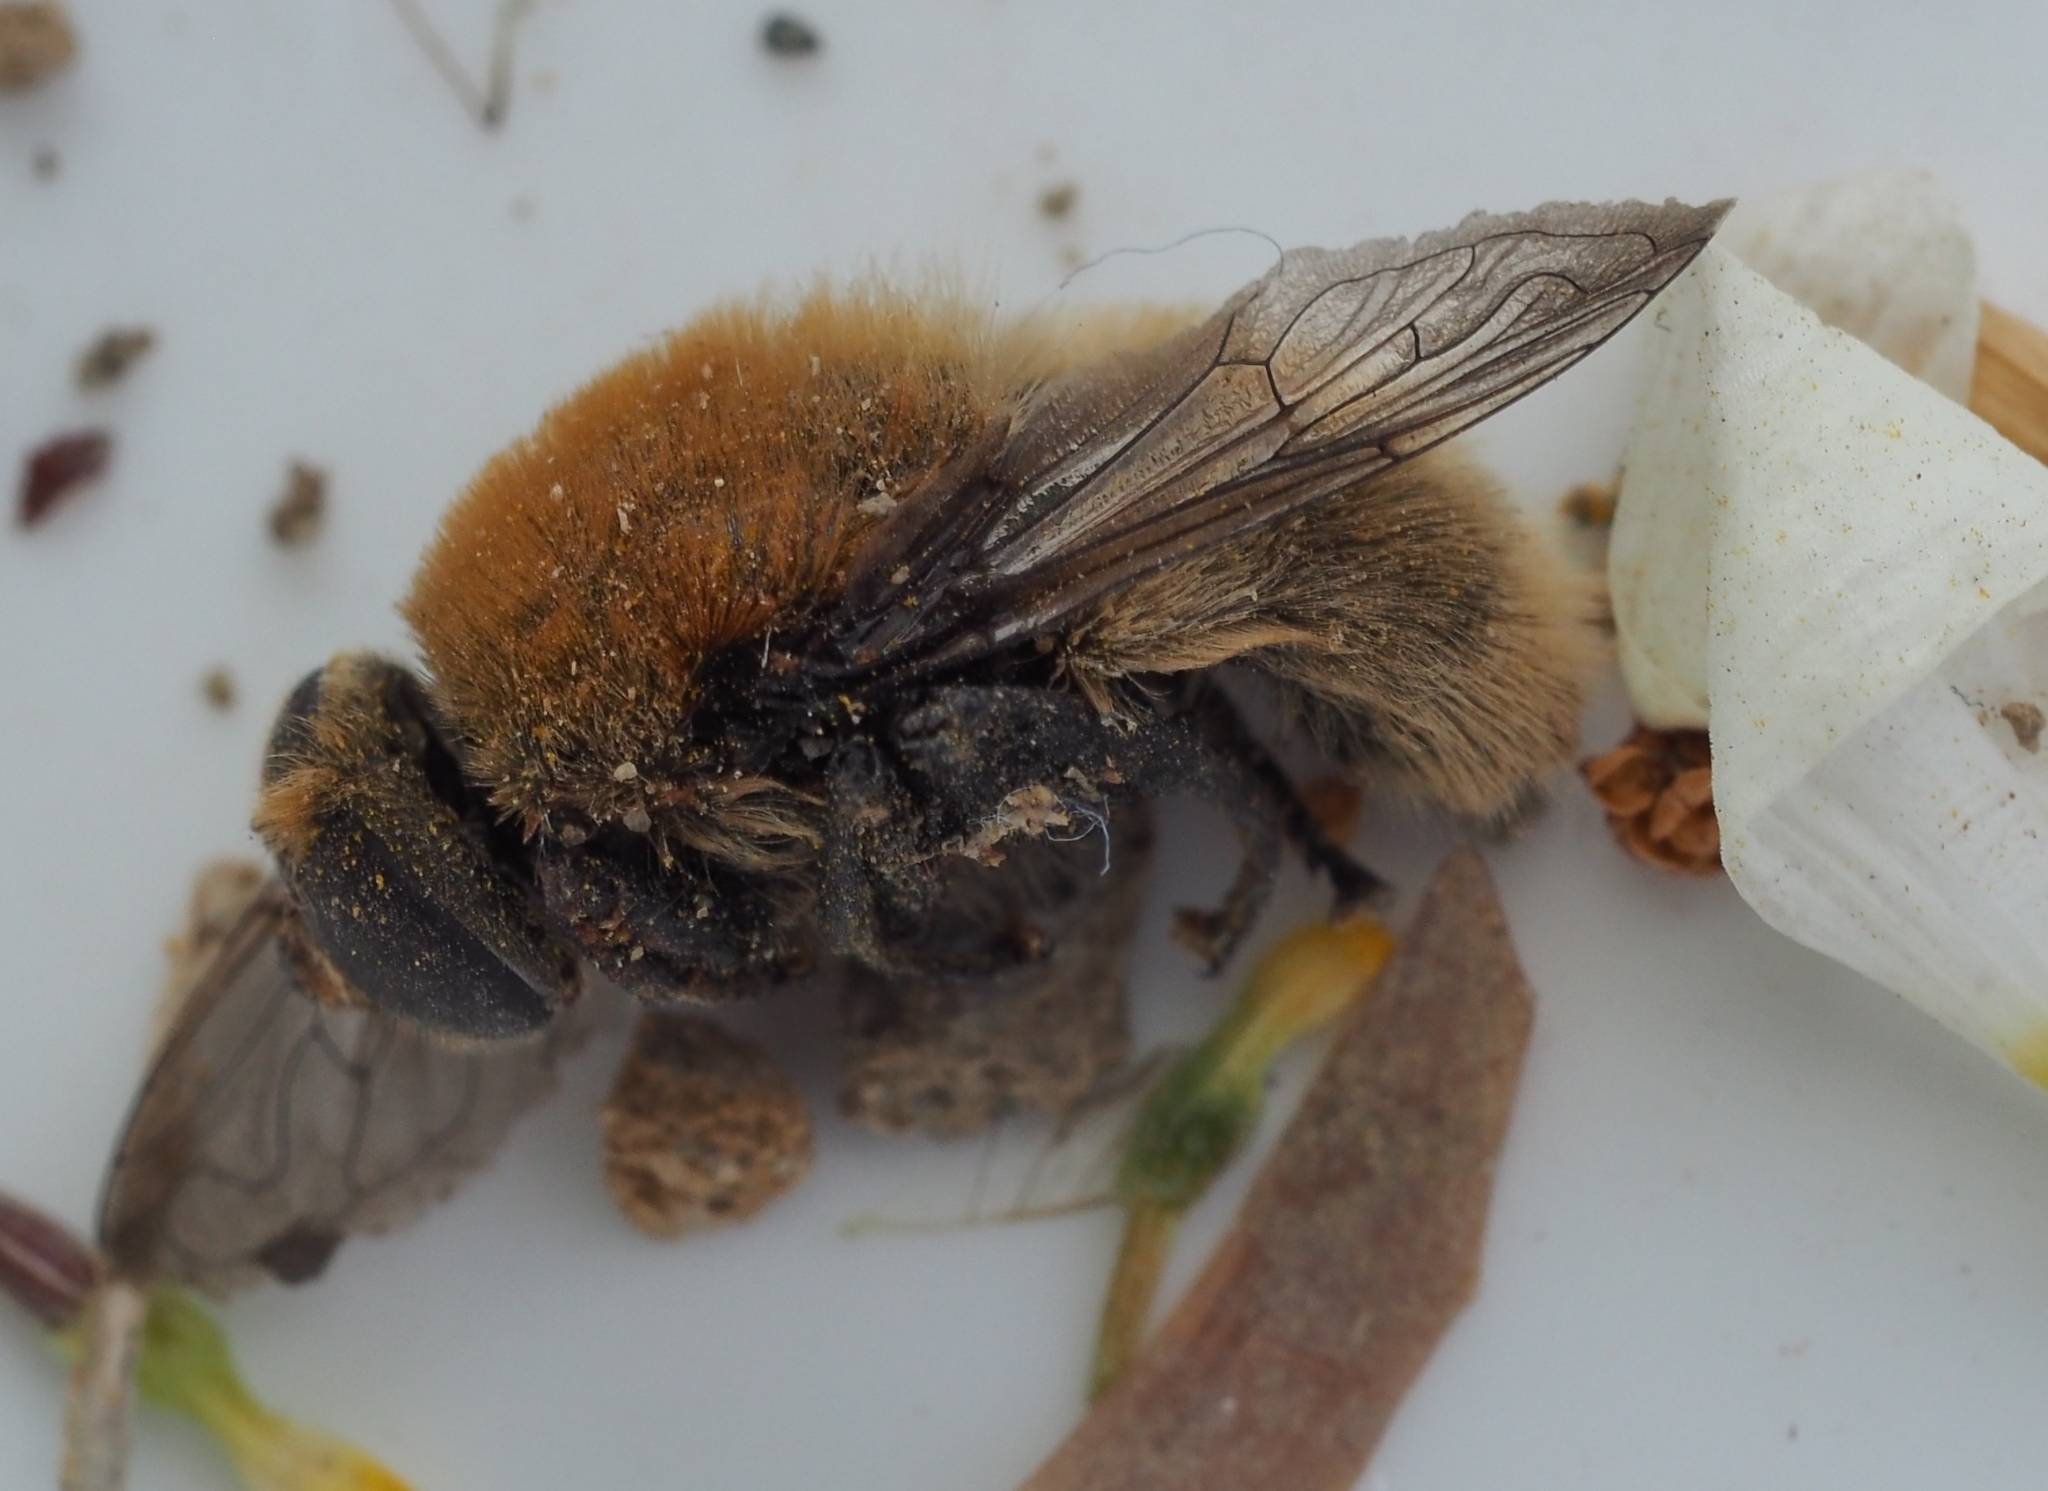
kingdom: Animalia
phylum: Arthropoda
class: Insecta
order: Diptera
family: Syrphidae
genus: Merodon
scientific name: Merodon equestris
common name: Greater bulb-fly
